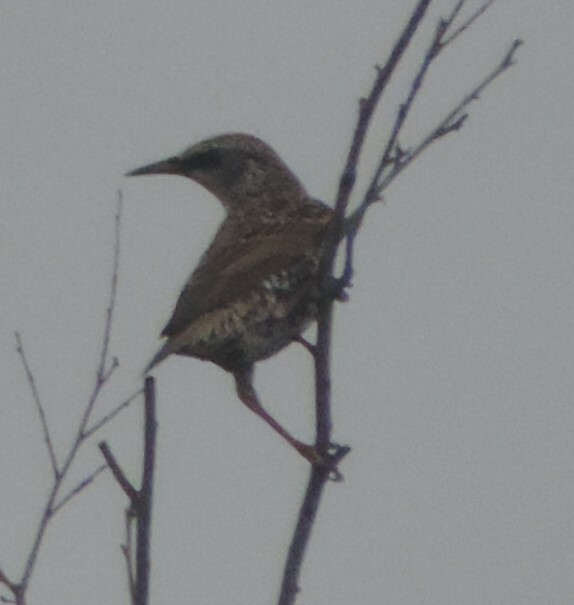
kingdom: Animalia
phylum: Chordata
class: Aves
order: Passeriformes
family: Sturnidae
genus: Sturnus
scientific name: Sturnus vulgaris
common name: Common starling
